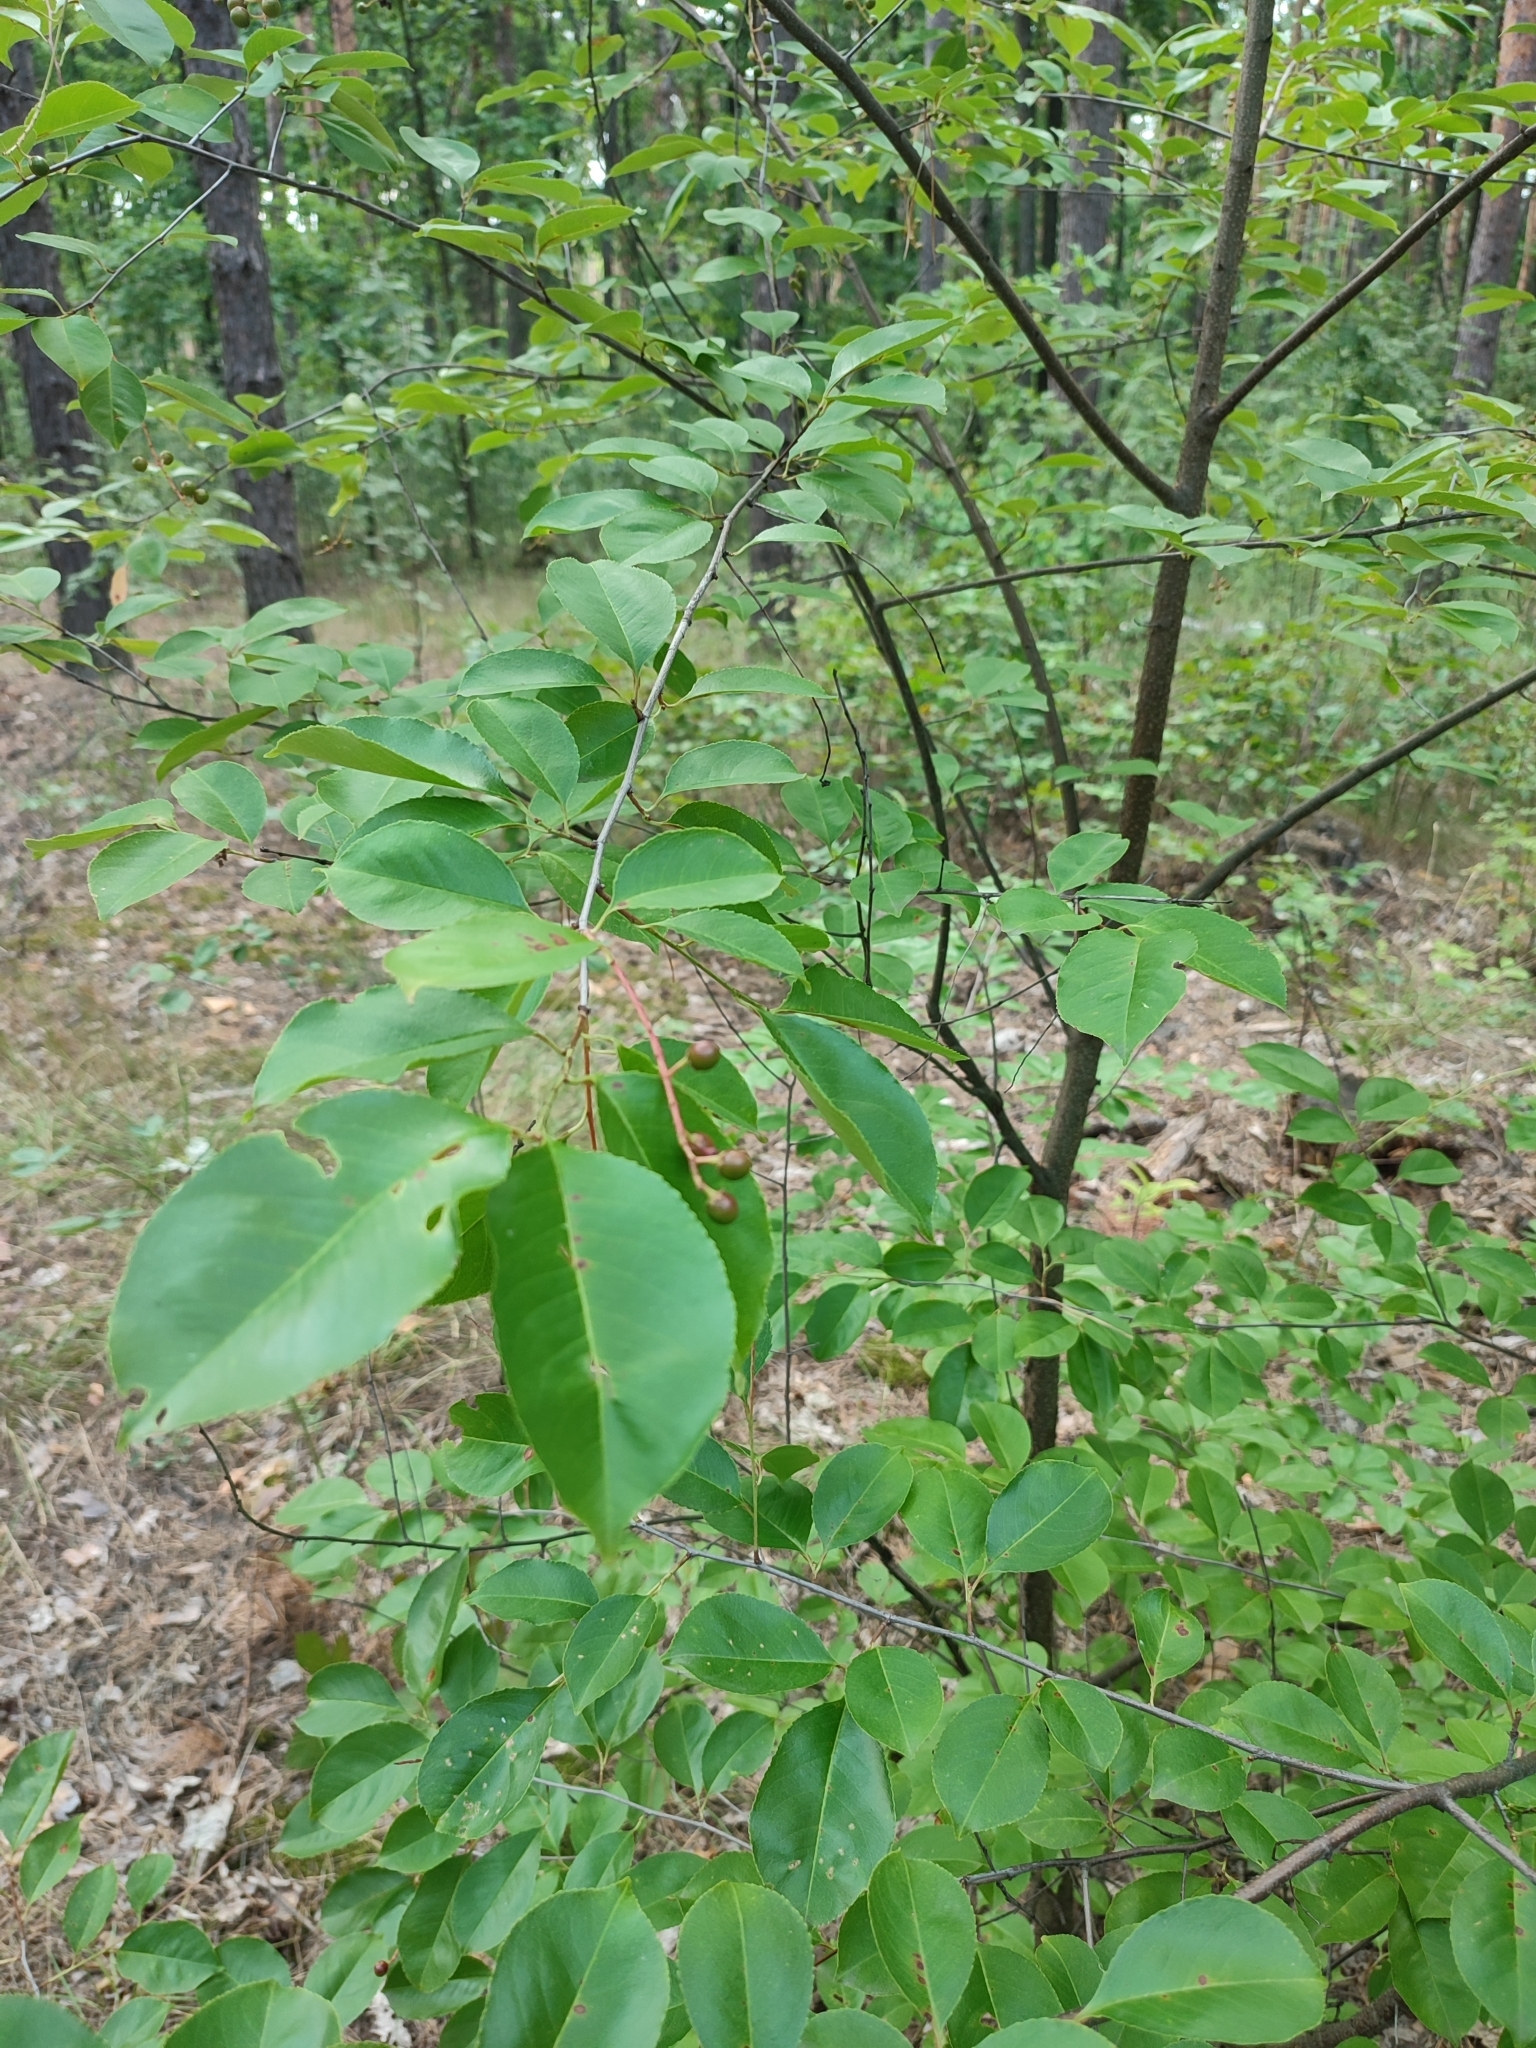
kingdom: Plantae
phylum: Tracheophyta
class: Magnoliopsida
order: Rosales
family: Rosaceae
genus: Prunus
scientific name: Prunus serotina
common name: Black cherry
